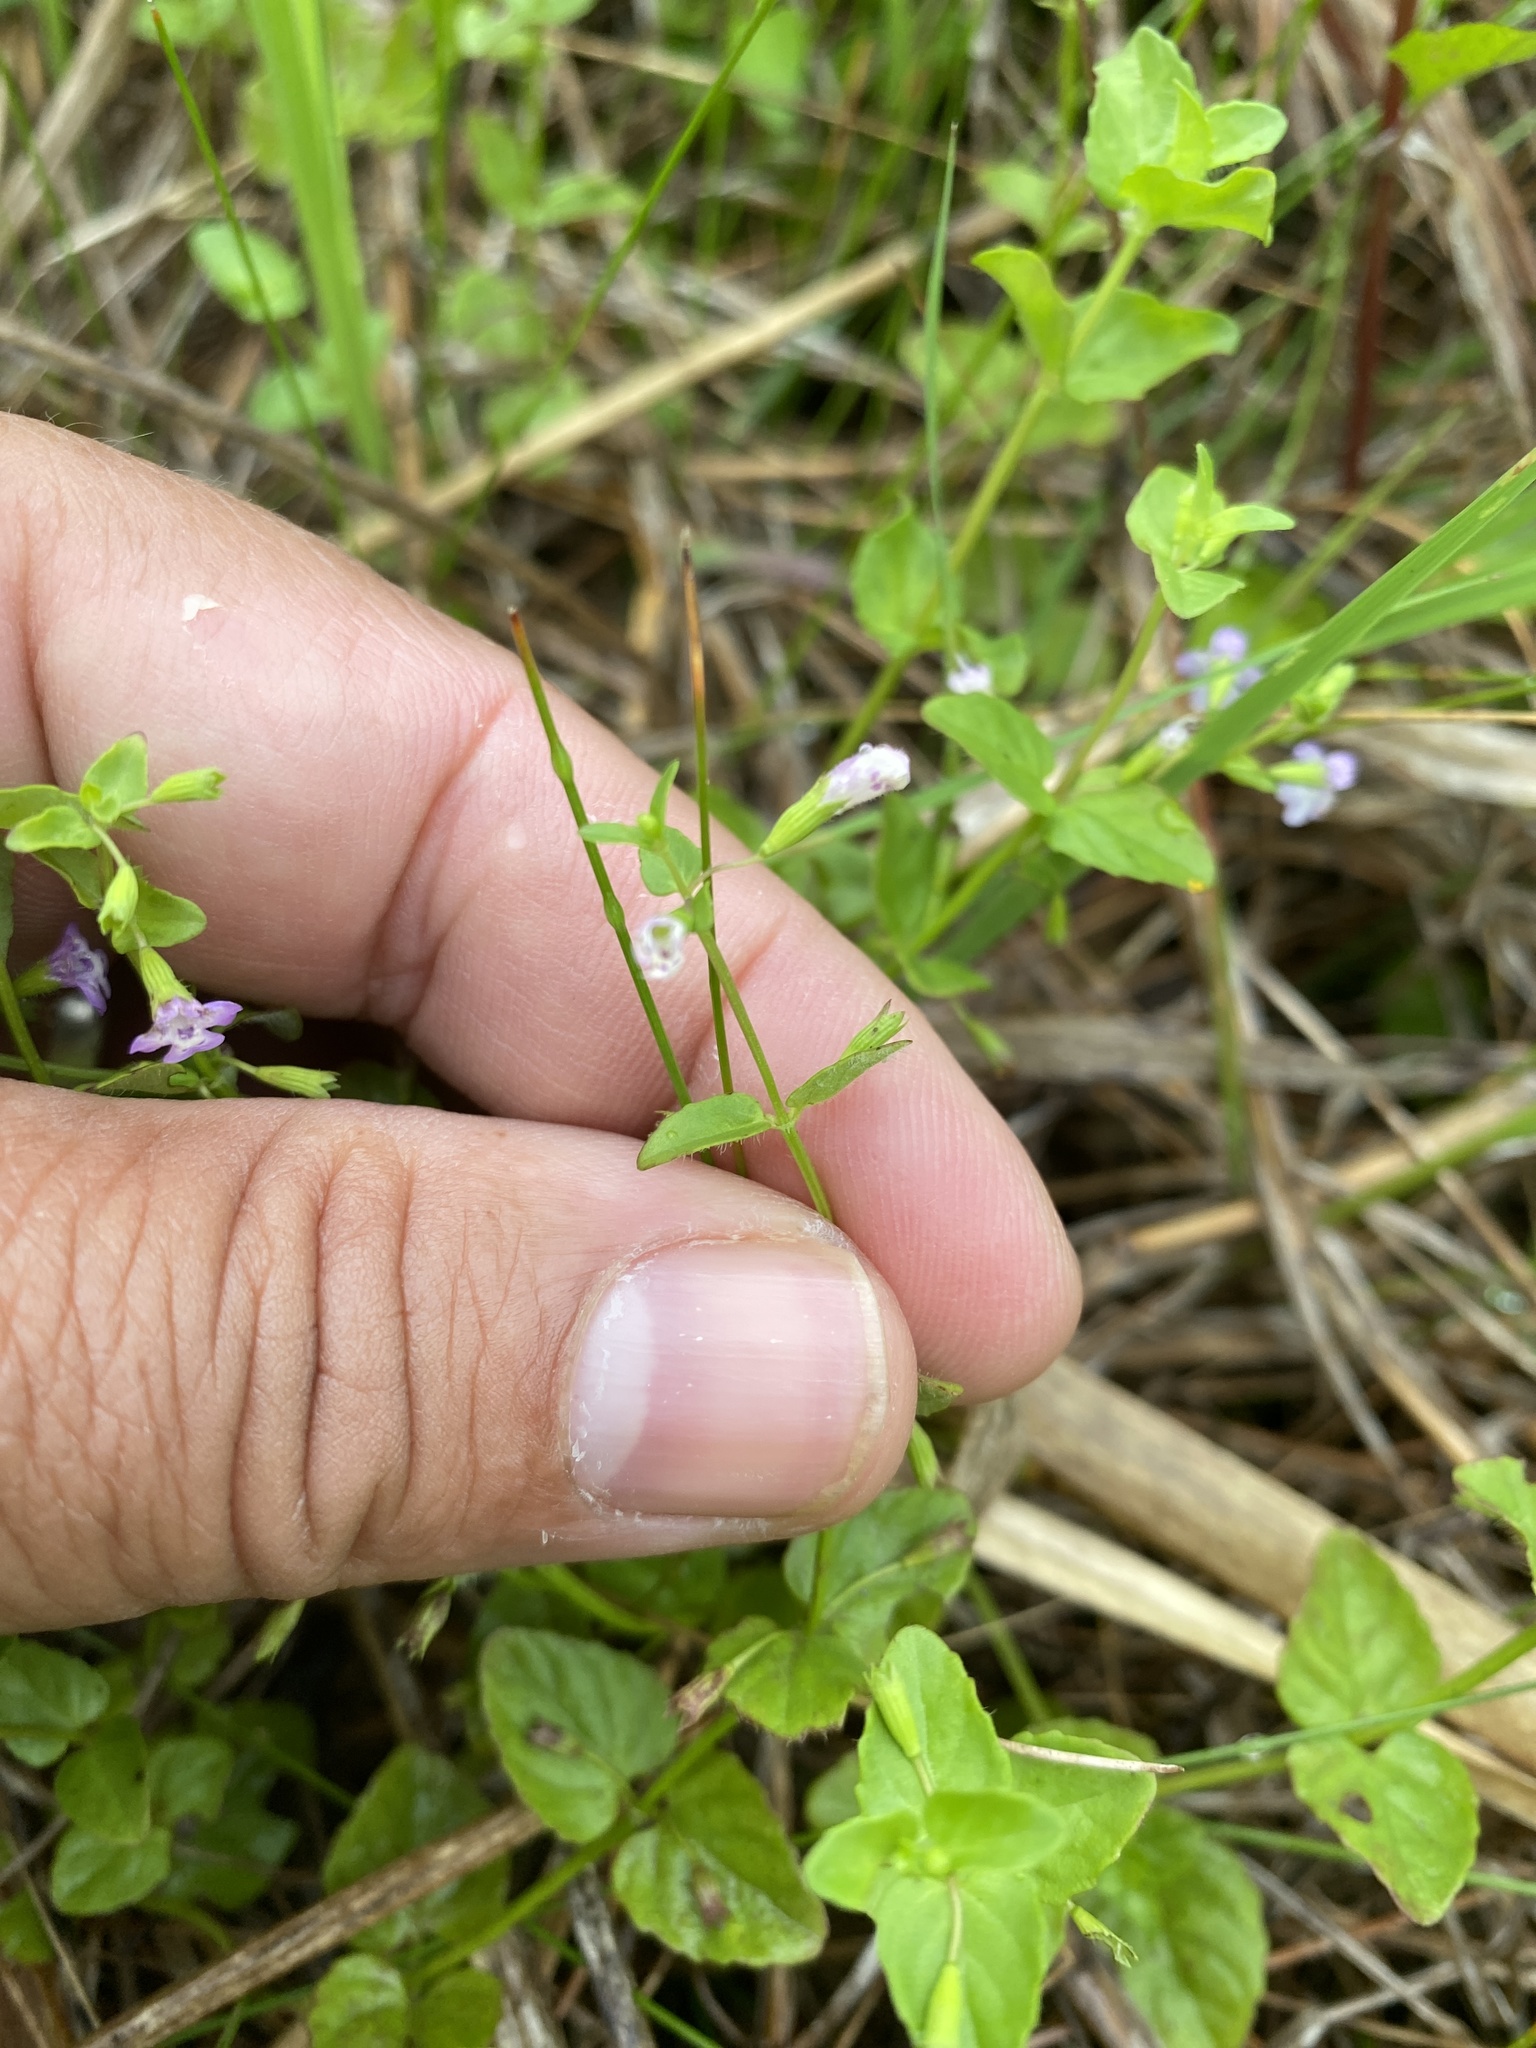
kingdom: Plantae
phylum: Tracheophyta
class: Magnoliopsida
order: Lamiales
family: Lamiaceae
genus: Clinopodium
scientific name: Clinopodium brownei
